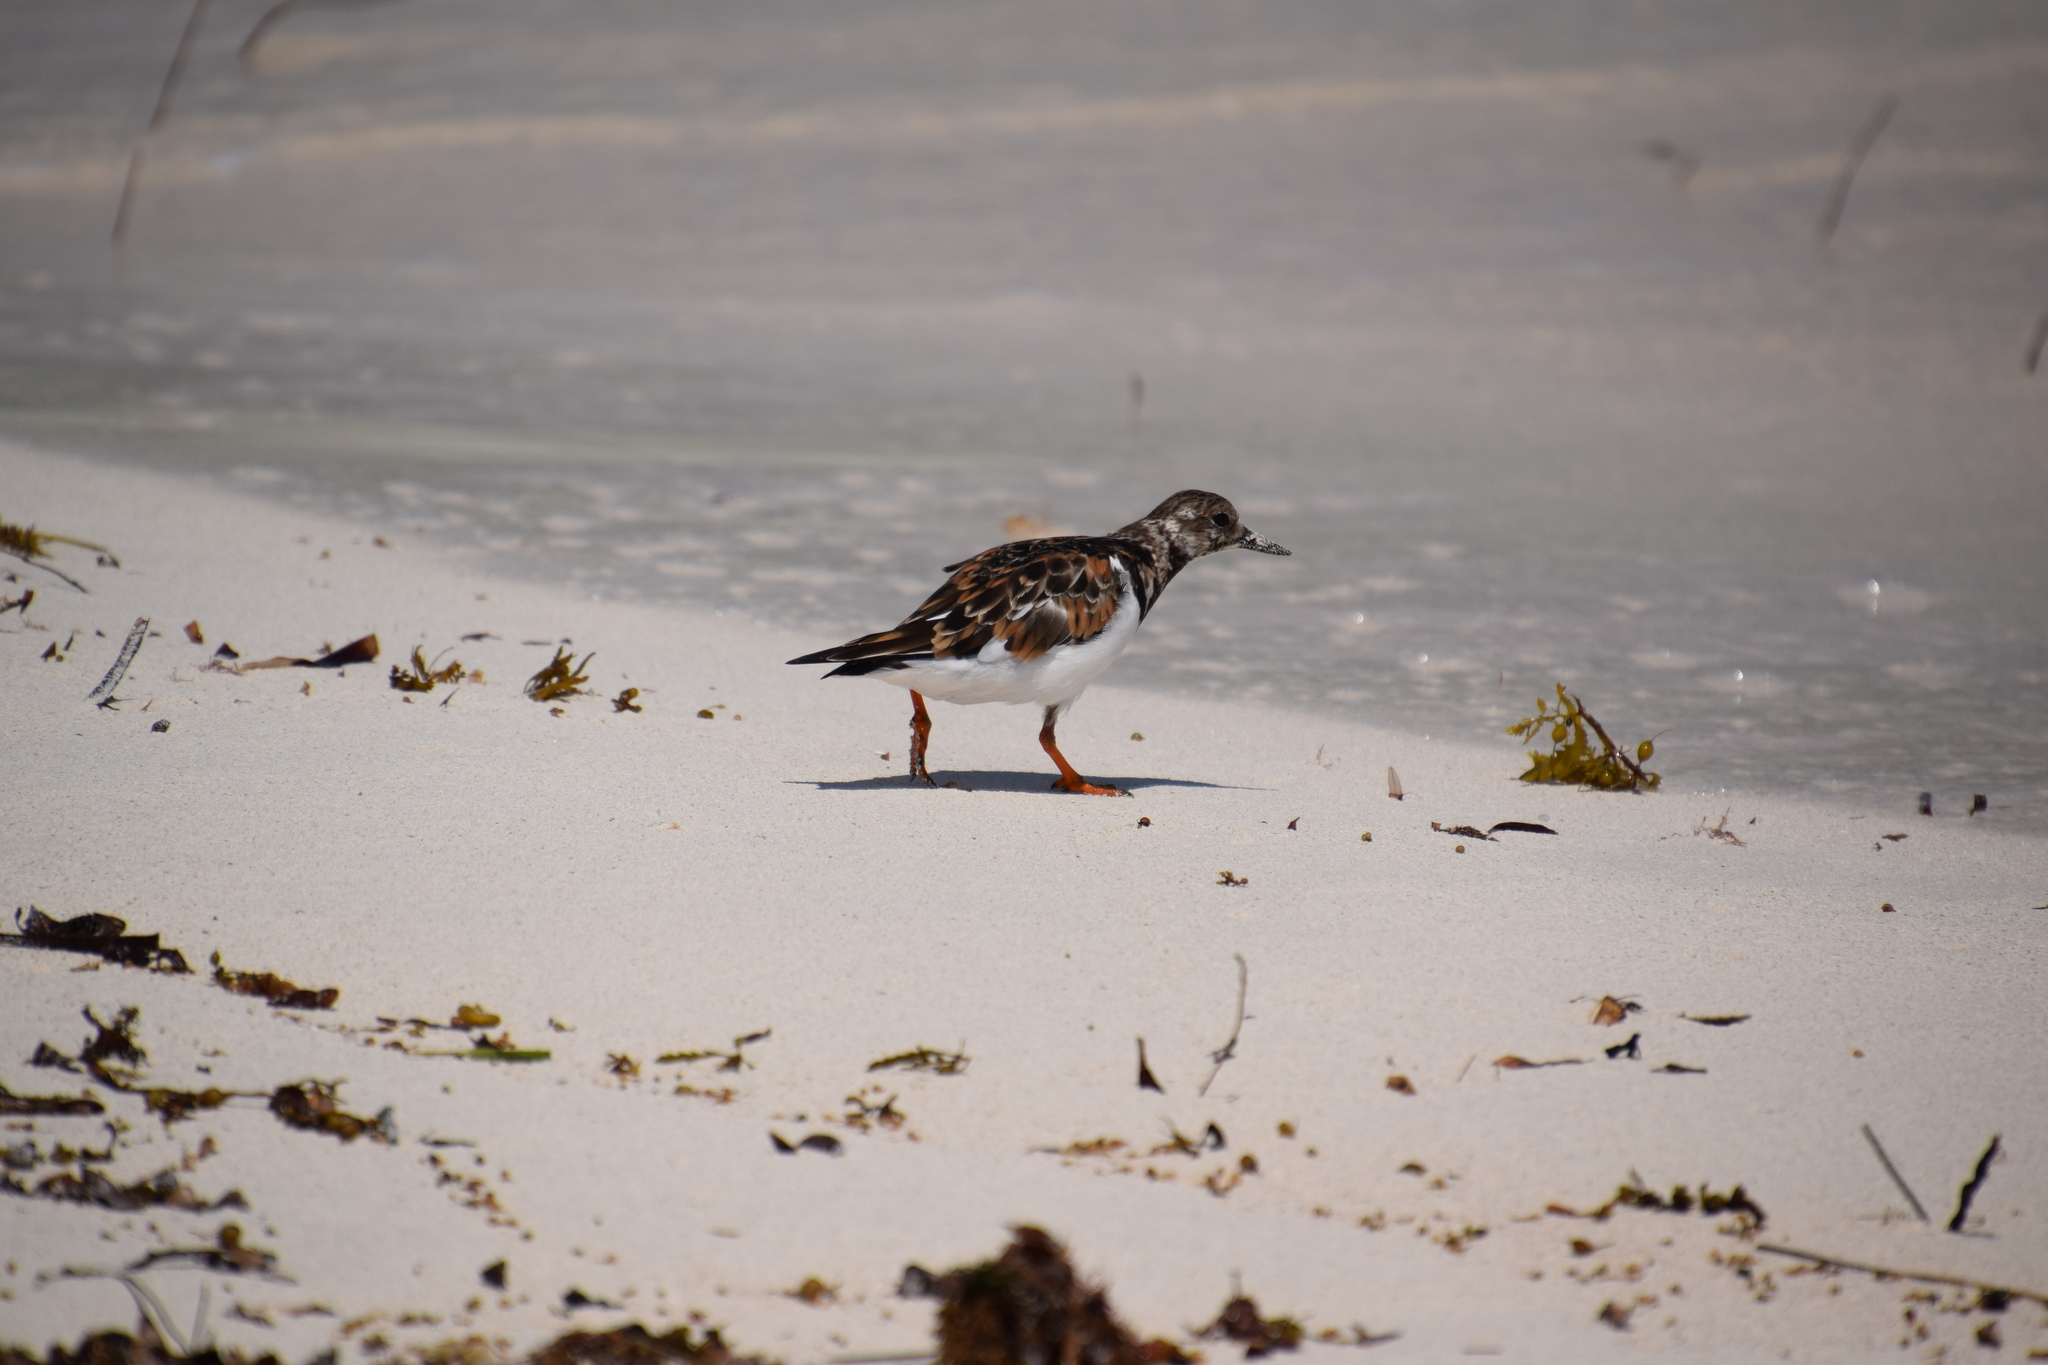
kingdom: Animalia
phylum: Chordata
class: Aves
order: Charadriiformes
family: Scolopacidae
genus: Arenaria
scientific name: Arenaria interpres
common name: Ruddy turnstone
